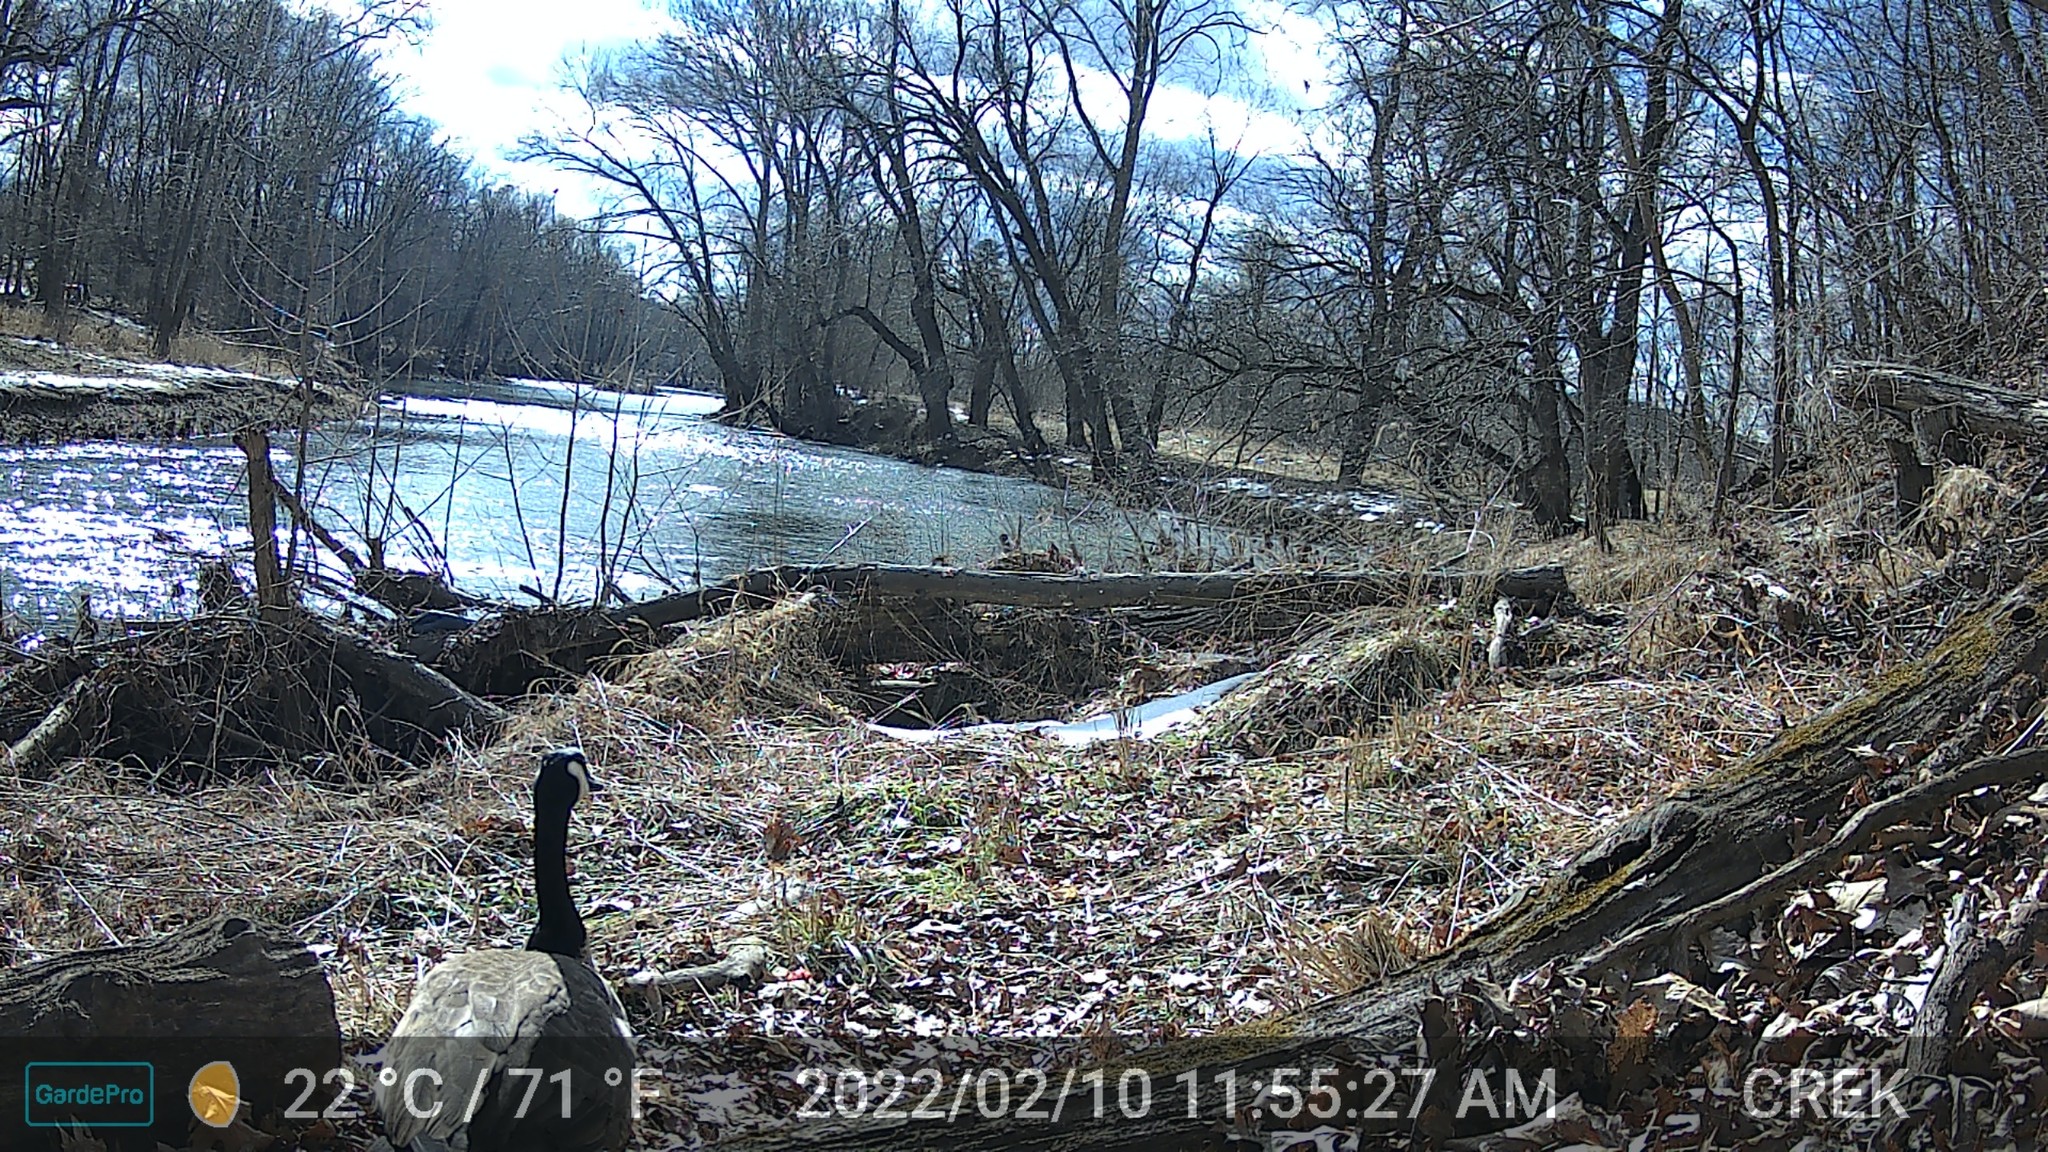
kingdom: Animalia
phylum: Chordata
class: Aves
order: Anseriformes
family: Anatidae
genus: Branta
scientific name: Branta canadensis
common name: Canada goose
